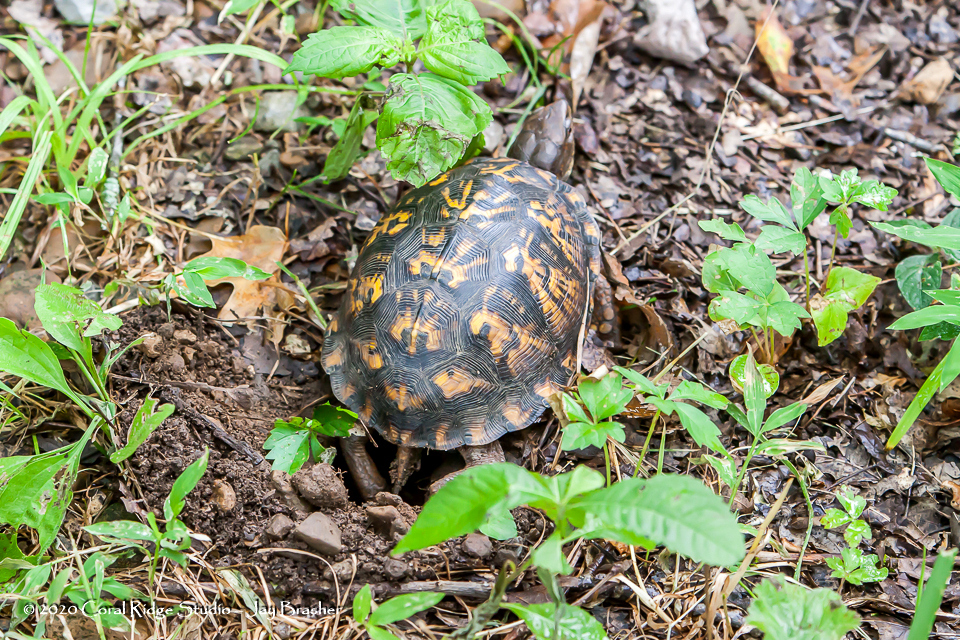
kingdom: Animalia
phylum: Chordata
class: Testudines
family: Emydidae
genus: Terrapene
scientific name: Terrapene carolina
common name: Common box turtle
